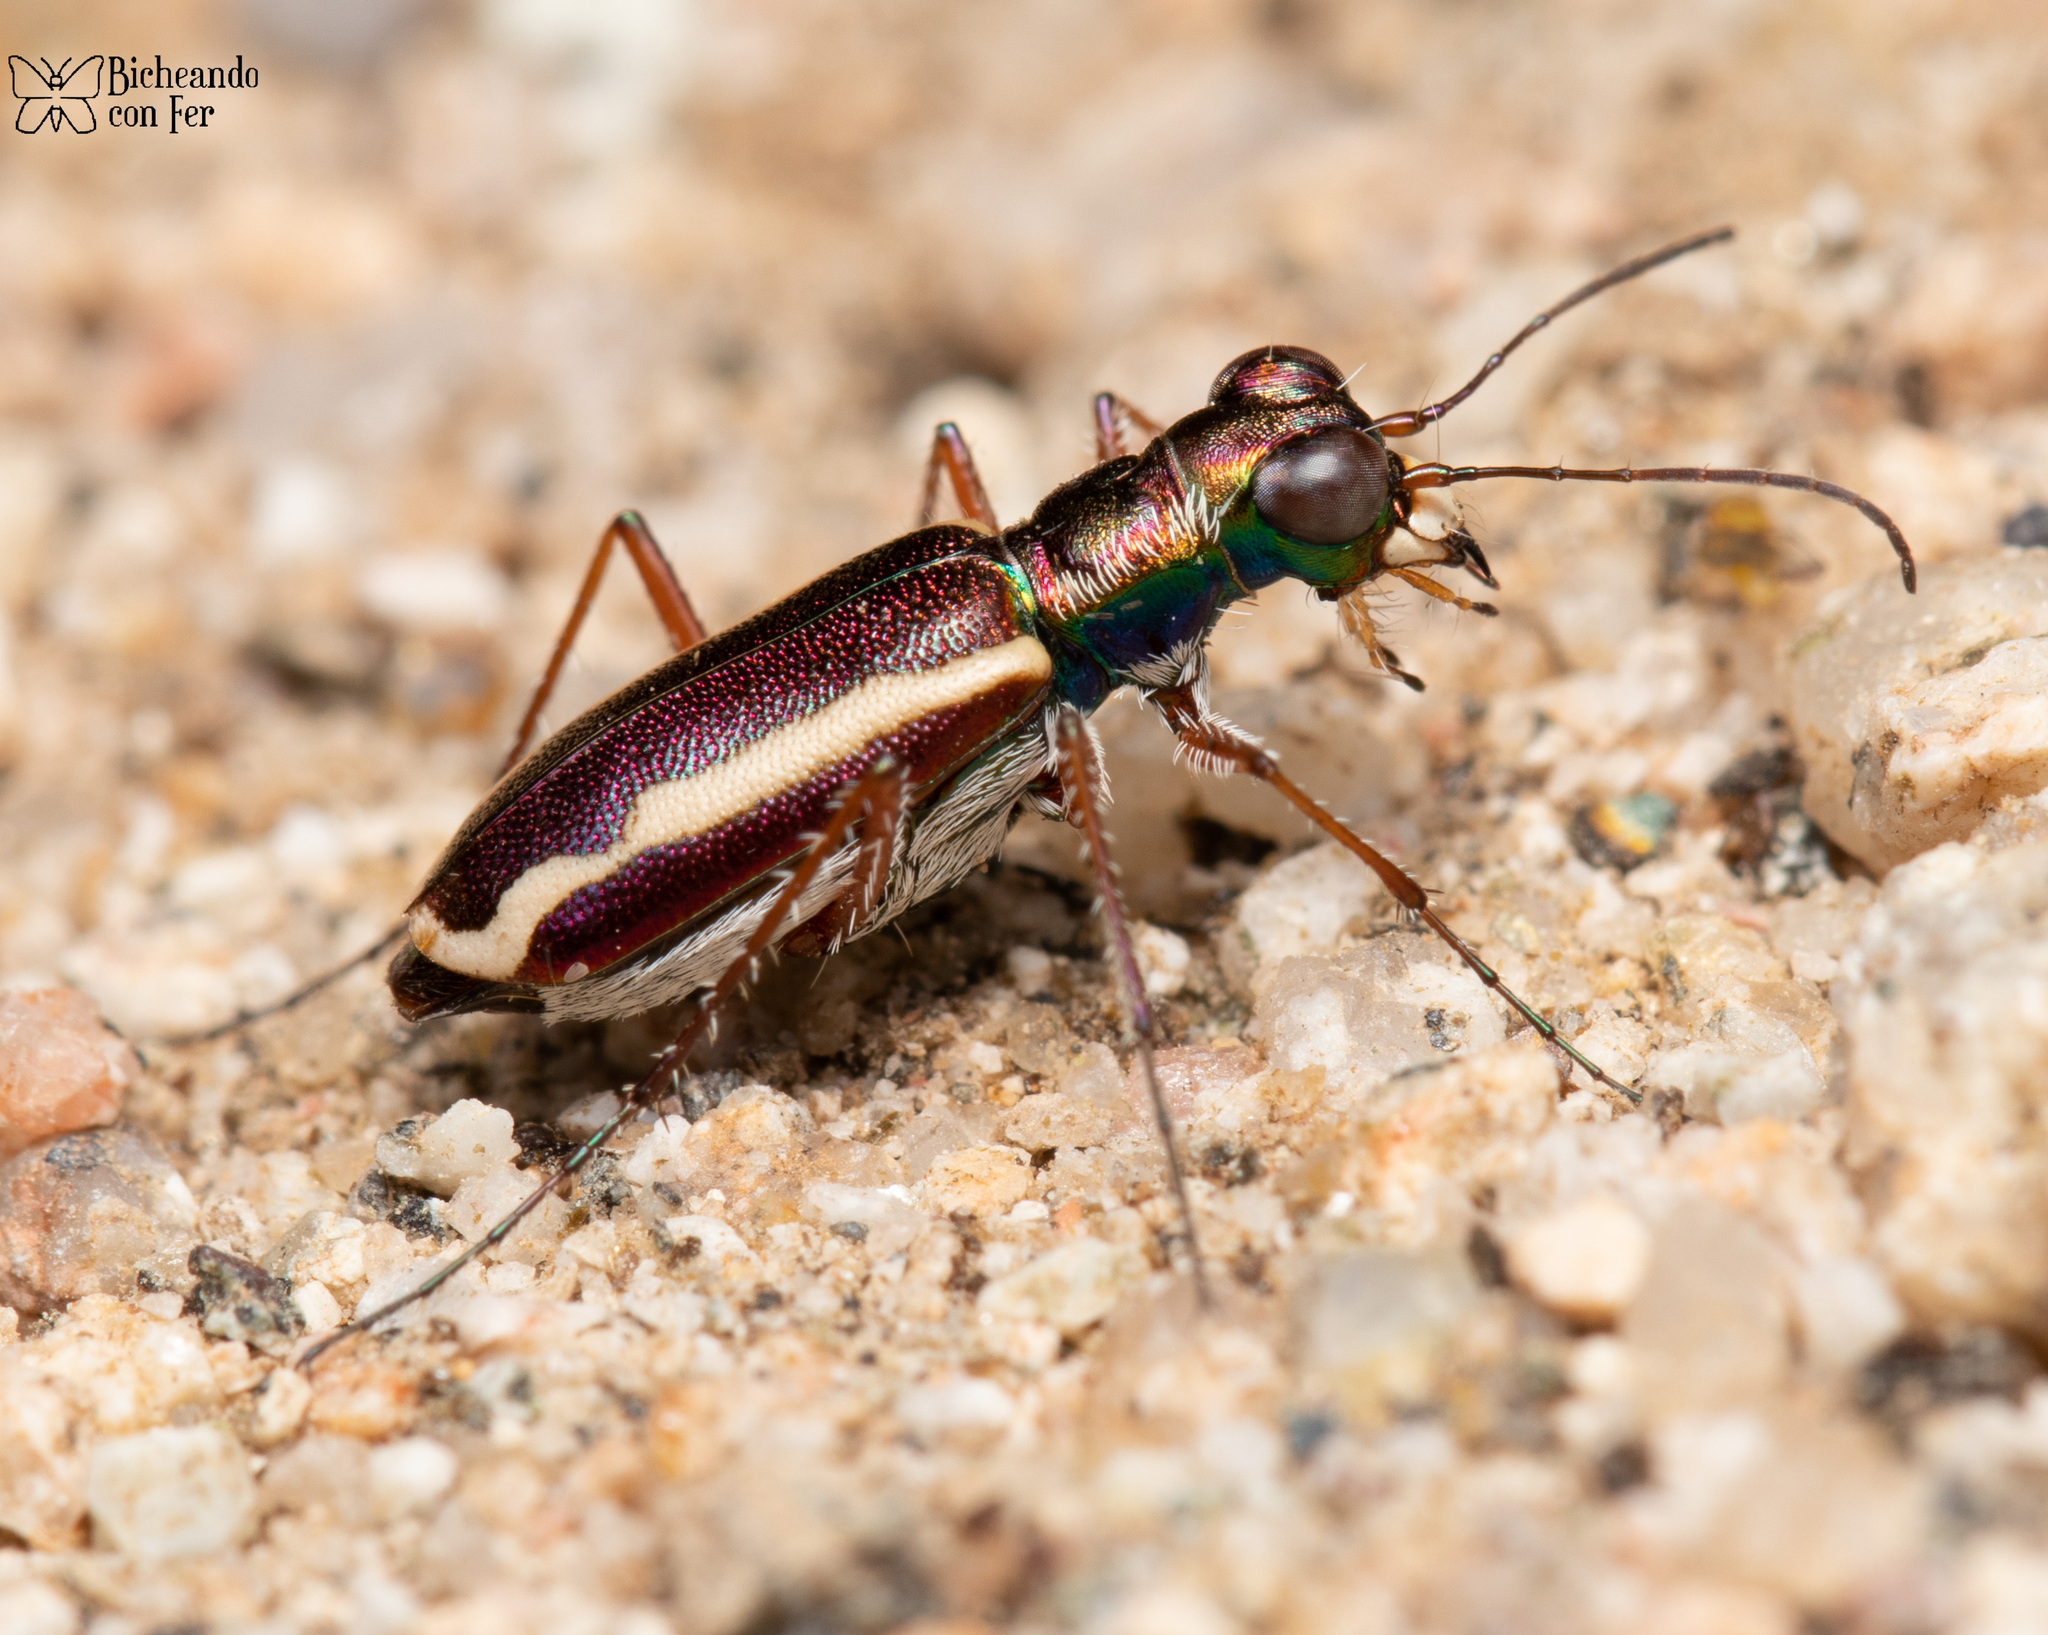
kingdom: Animalia
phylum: Arthropoda
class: Insecta
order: Coleoptera
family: Carabidae
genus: Cylindera
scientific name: Cylindera lemniscata
